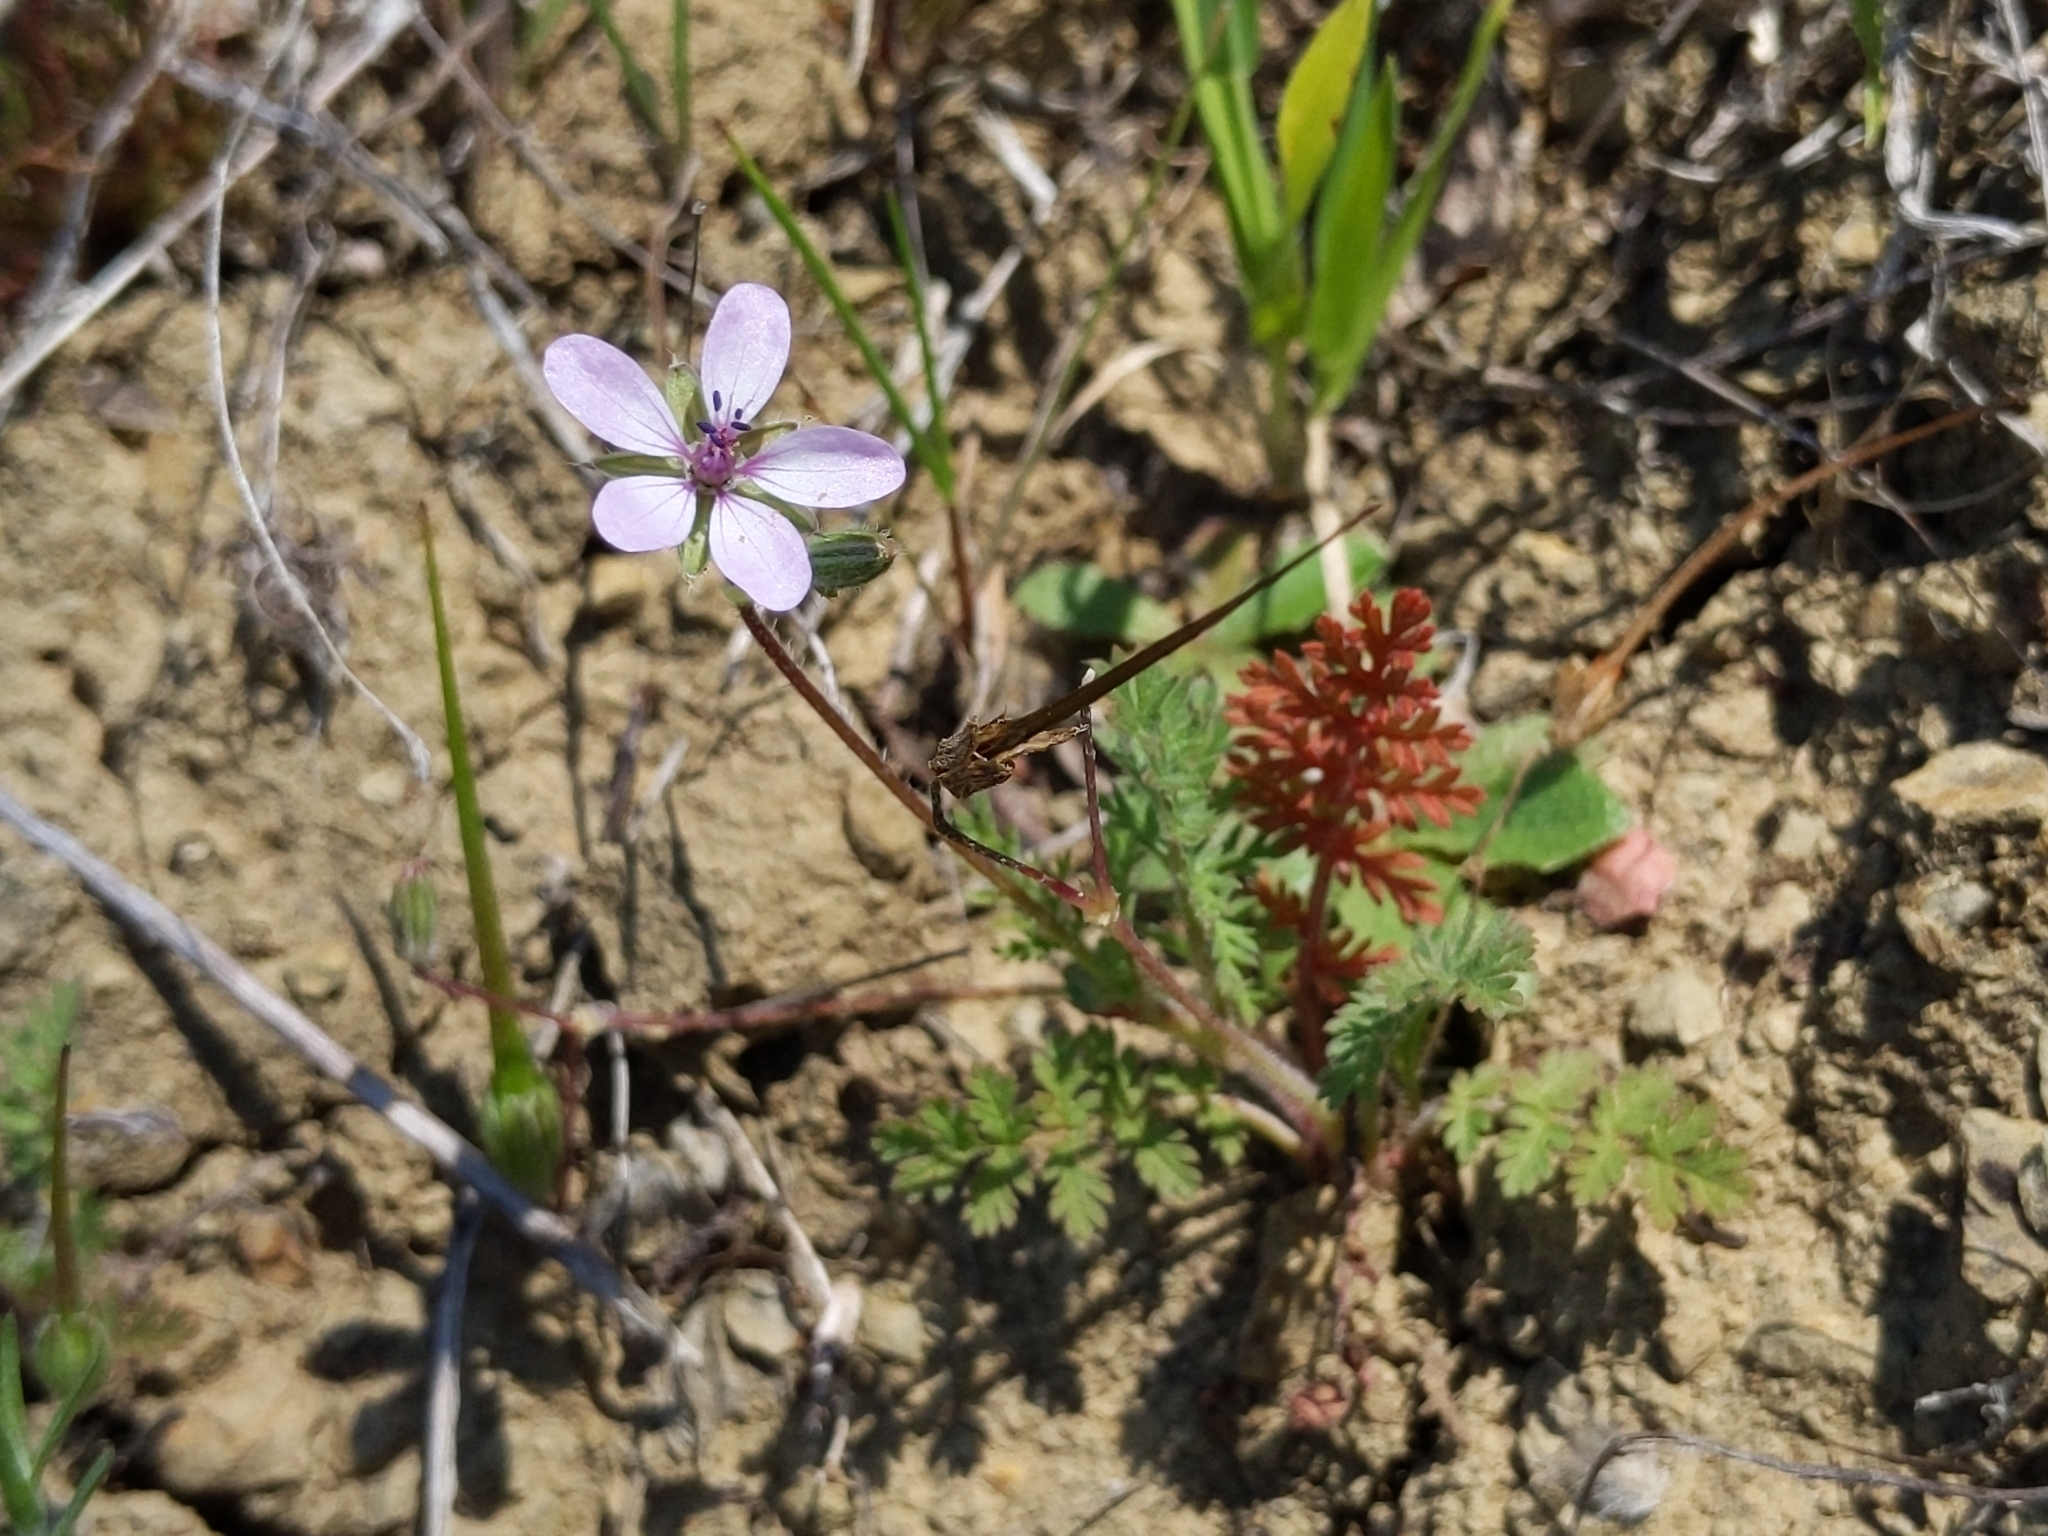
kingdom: Plantae
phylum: Tracheophyta
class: Magnoliopsida
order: Geraniales
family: Geraniaceae
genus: Erodium
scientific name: Erodium cicutarium
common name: Common stork's-bill
